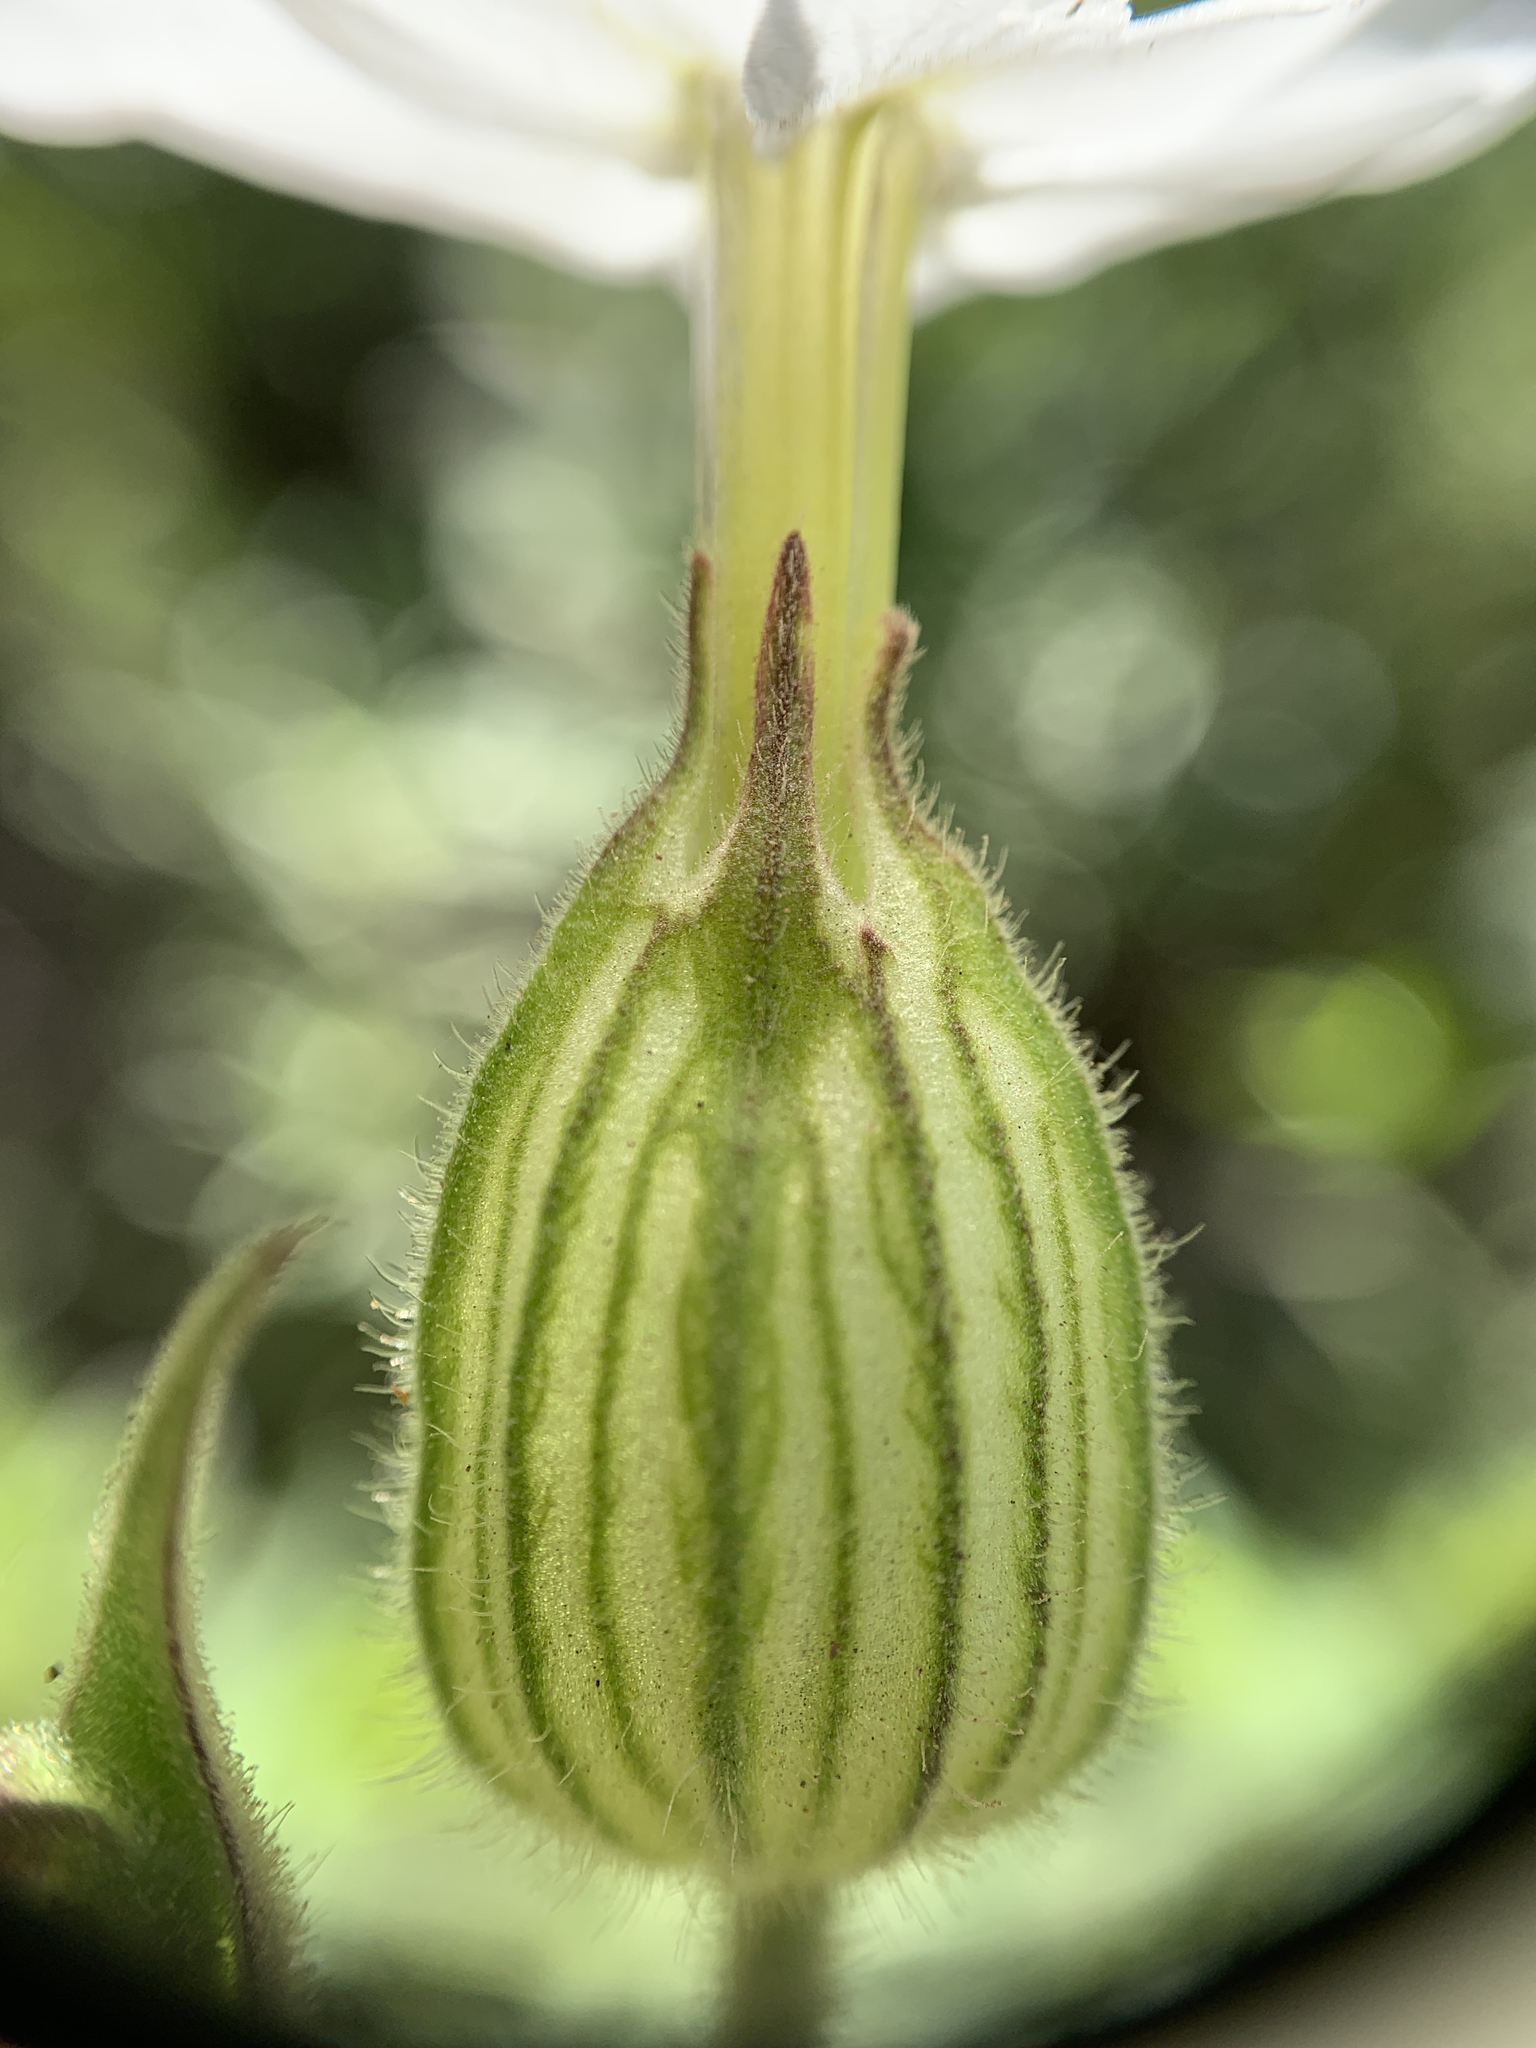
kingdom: Plantae
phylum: Tracheophyta
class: Magnoliopsida
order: Caryophyllales
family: Caryophyllaceae
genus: Silene
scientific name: Silene latifolia
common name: White campion
